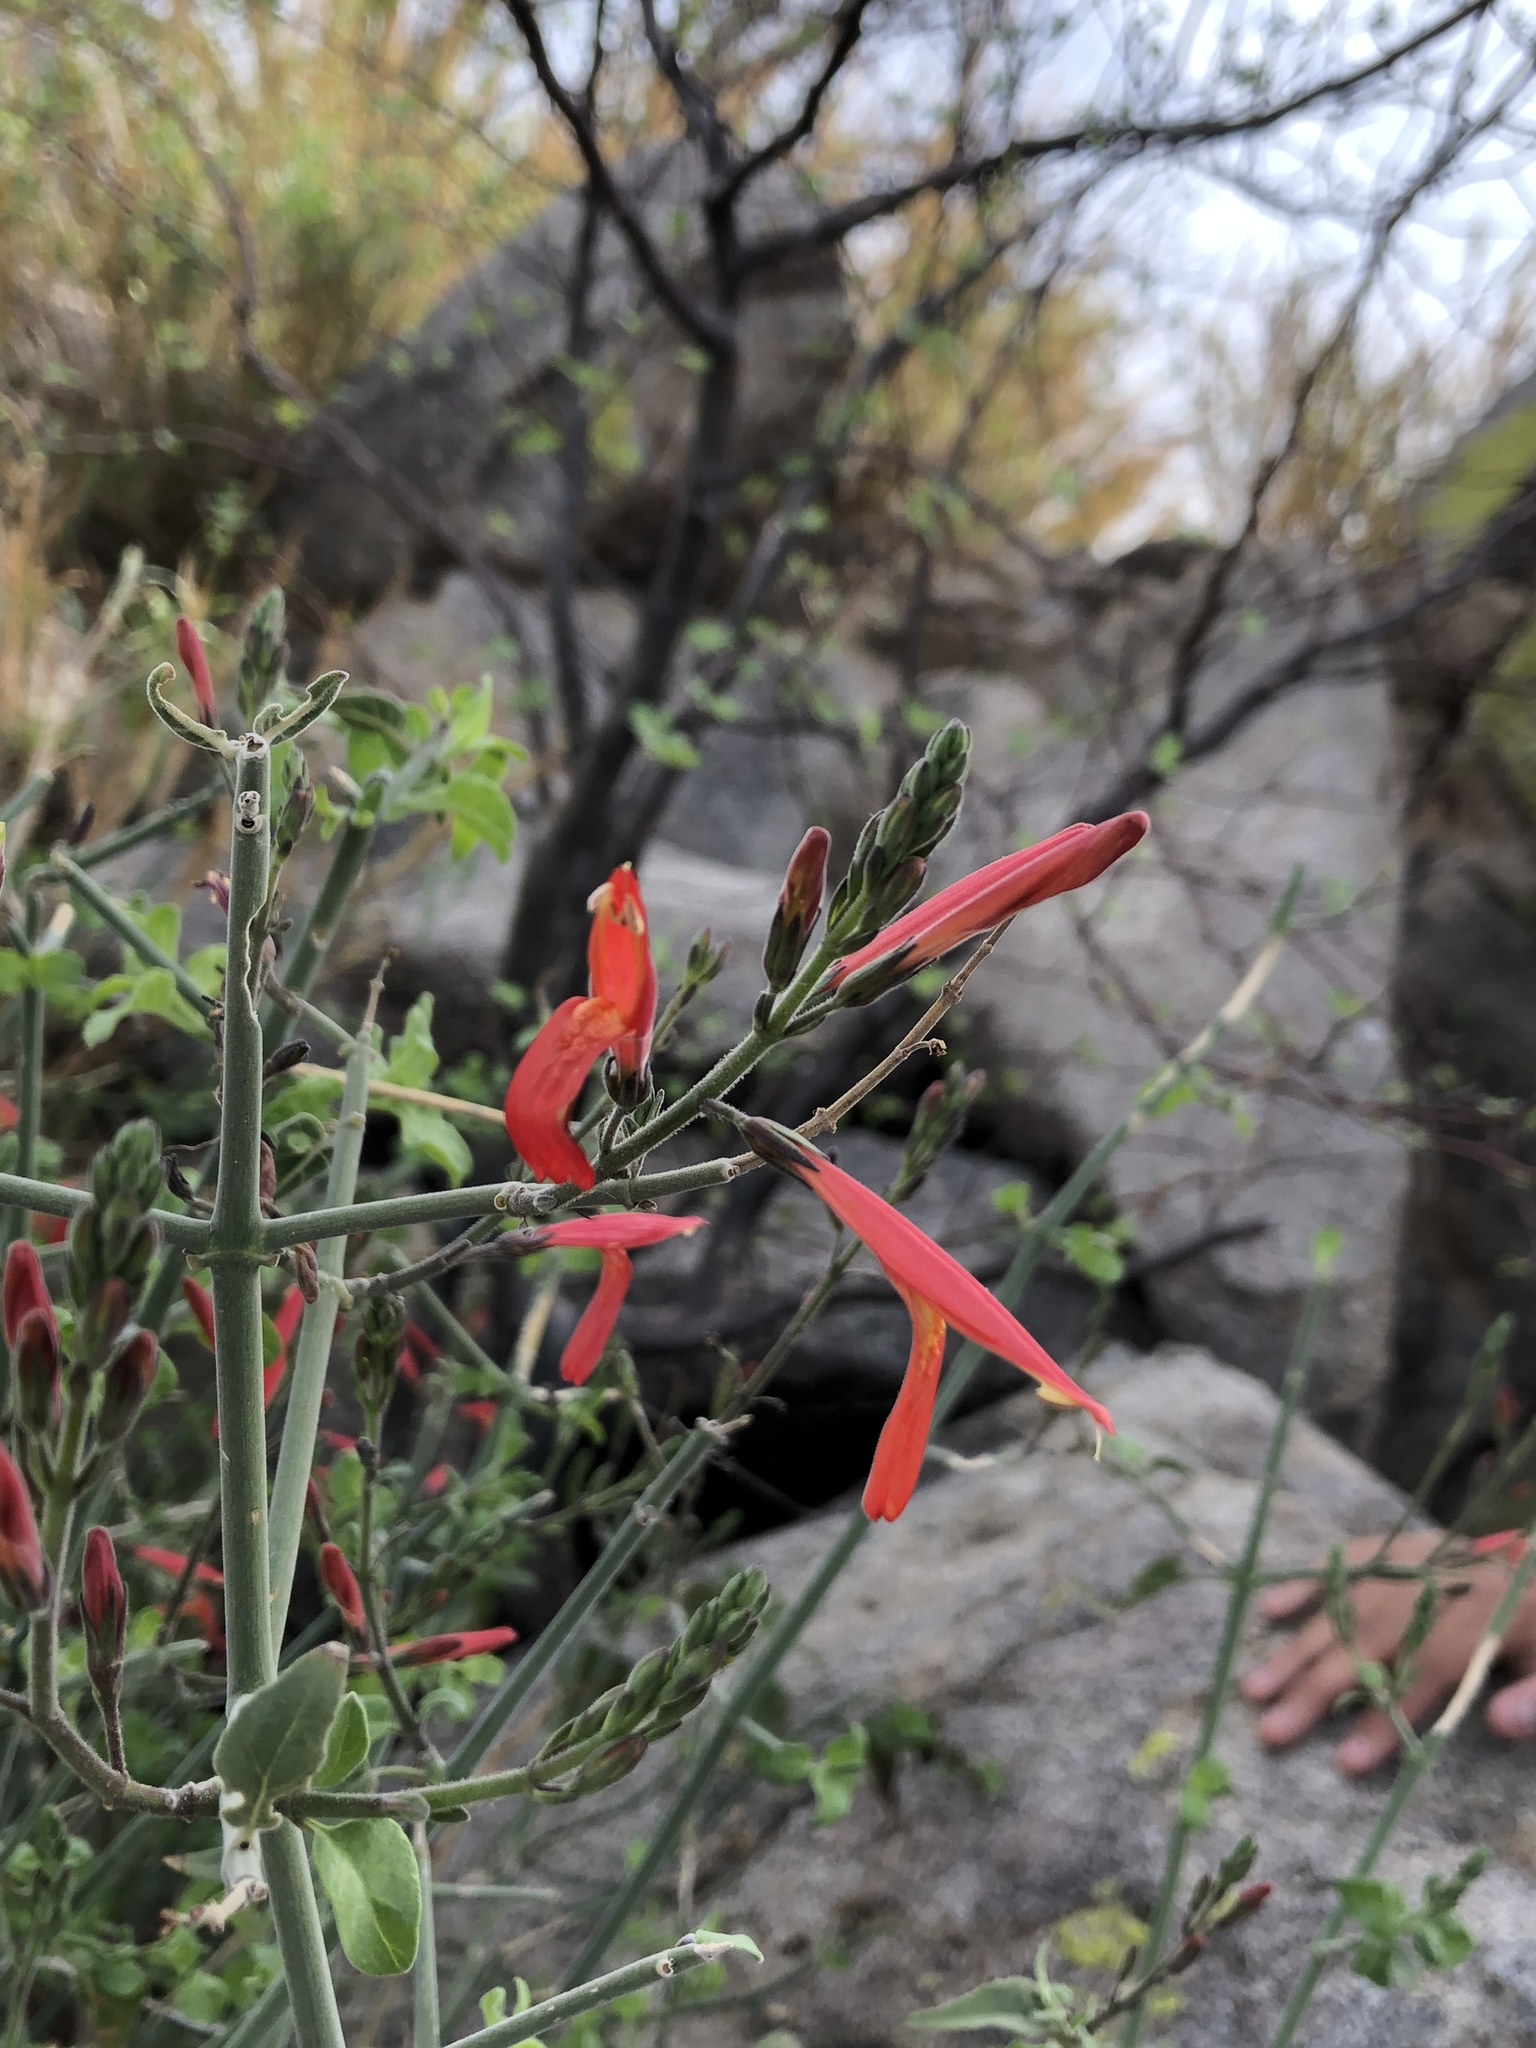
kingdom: Plantae
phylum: Tracheophyta
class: Magnoliopsida
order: Lamiales
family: Acanthaceae
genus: Justicia
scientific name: Justicia californica
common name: Chuparosa-honeysuckle
